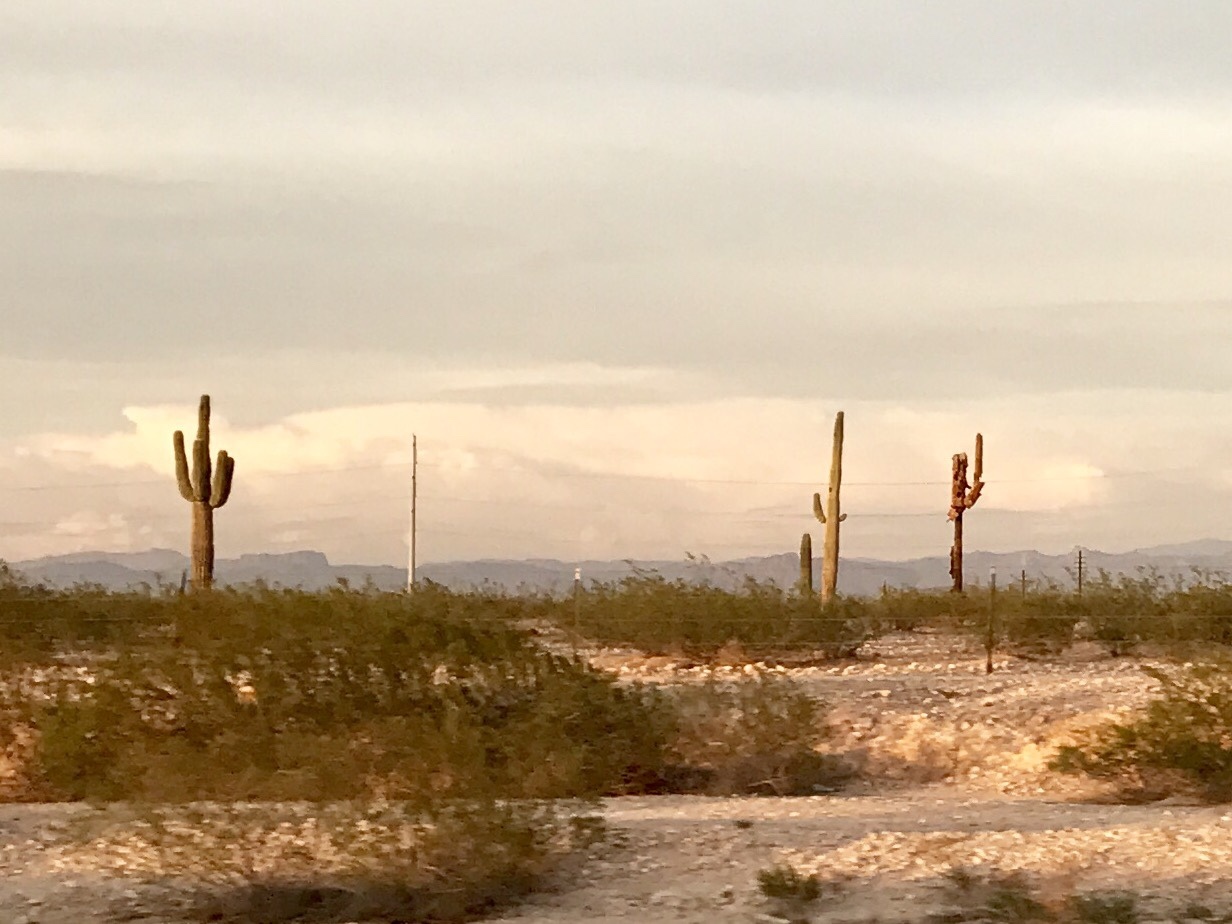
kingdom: Plantae
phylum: Tracheophyta
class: Magnoliopsida
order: Caryophyllales
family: Cactaceae
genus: Carnegiea
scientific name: Carnegiea gigantea
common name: Saguaro
